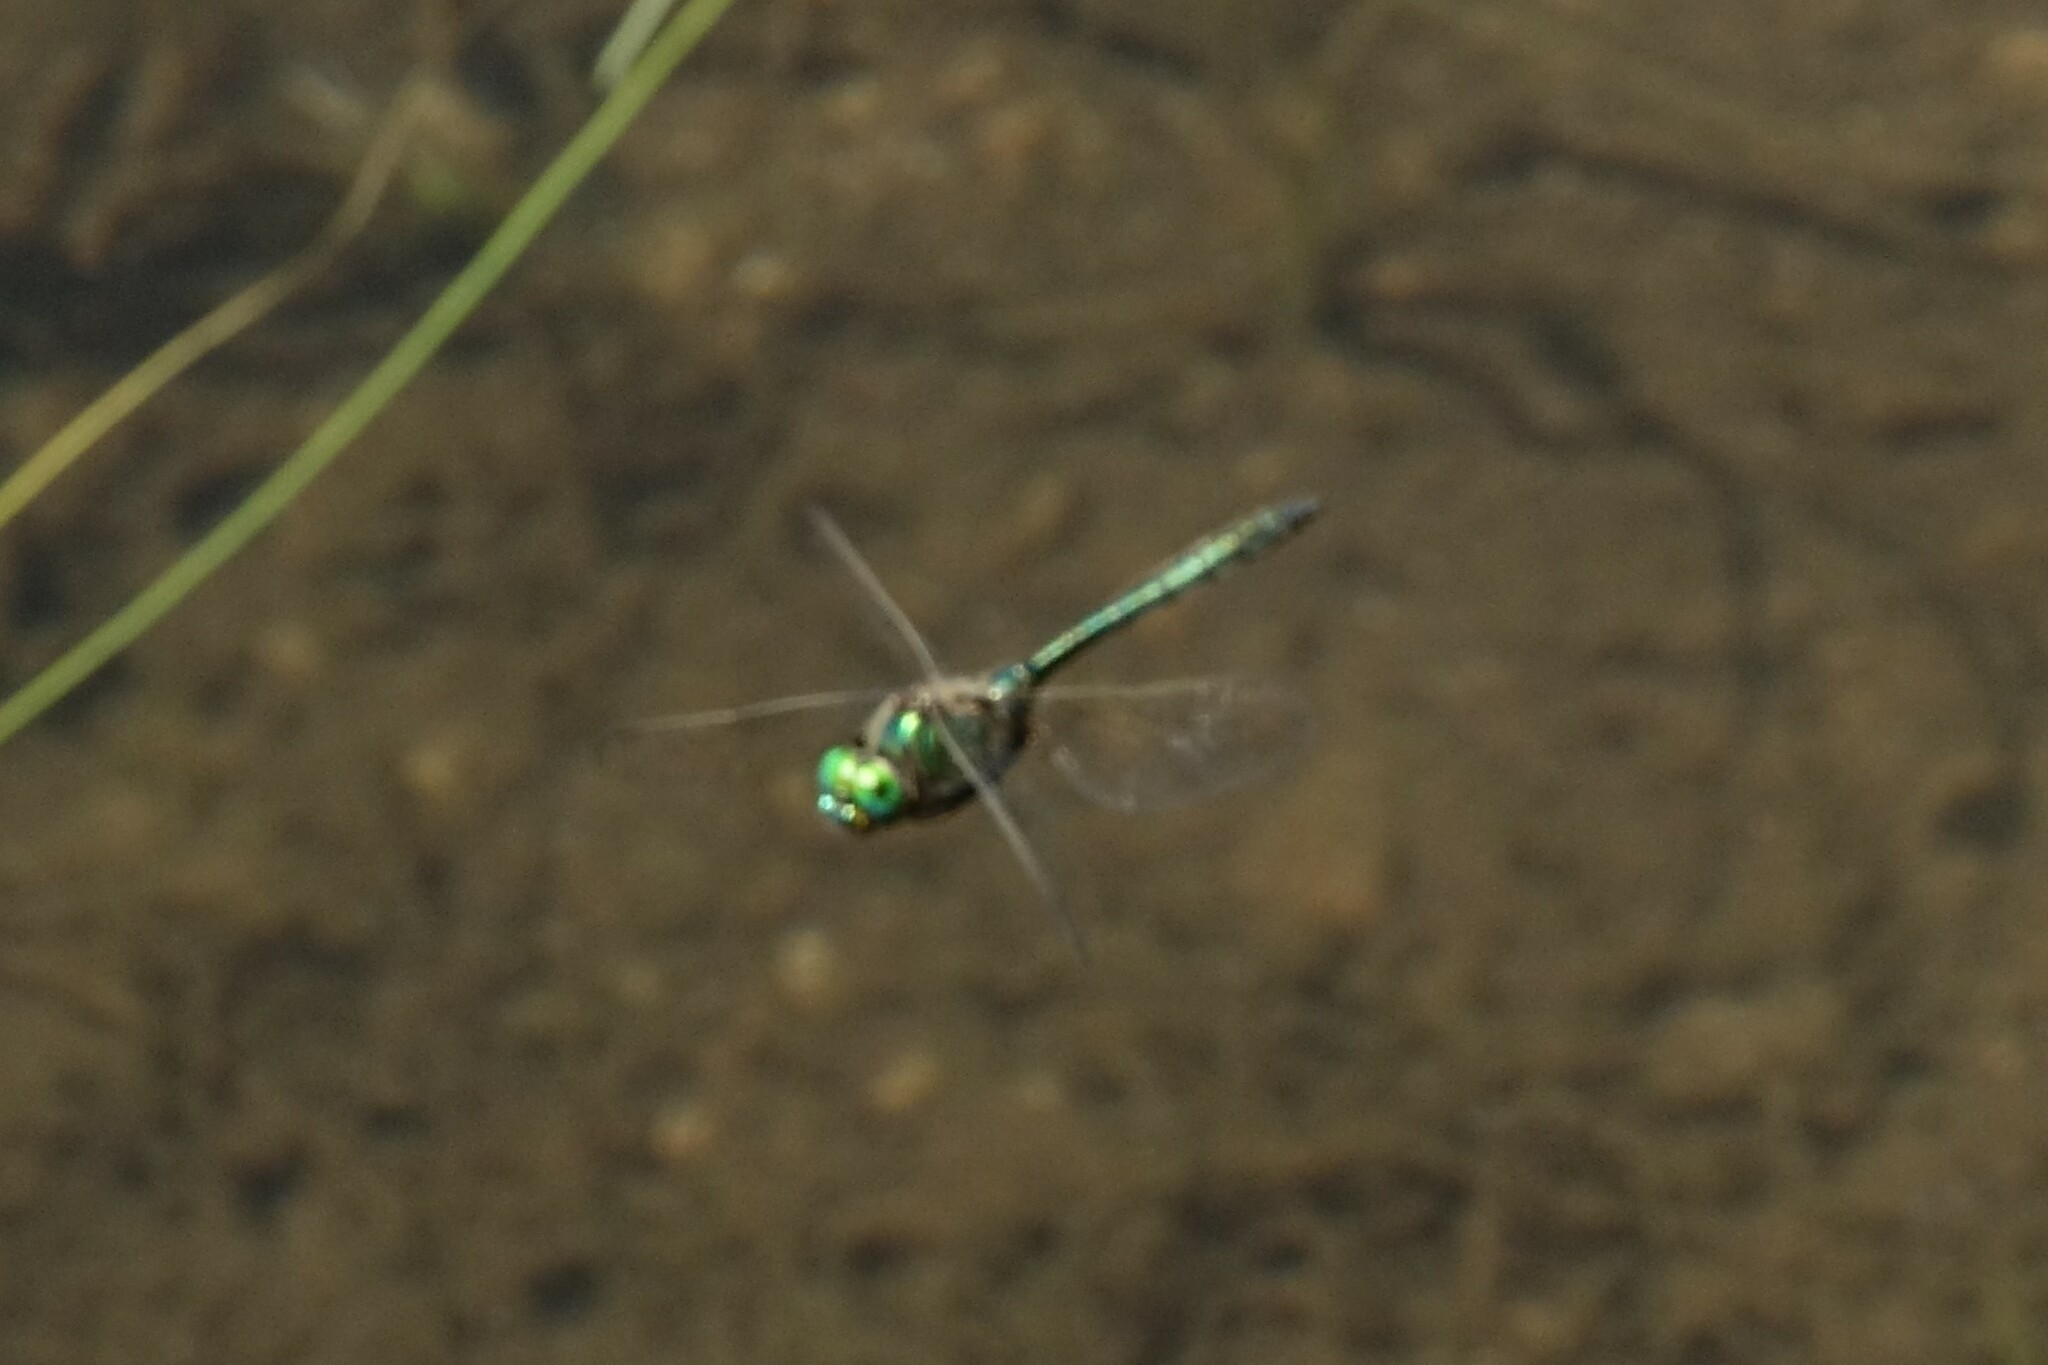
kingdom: Animalia
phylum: Arthropoda
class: Insecta
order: Odonata
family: Corduliidae
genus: Somatochlora
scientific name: Somatochlora metallica
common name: Brilliant emerald
